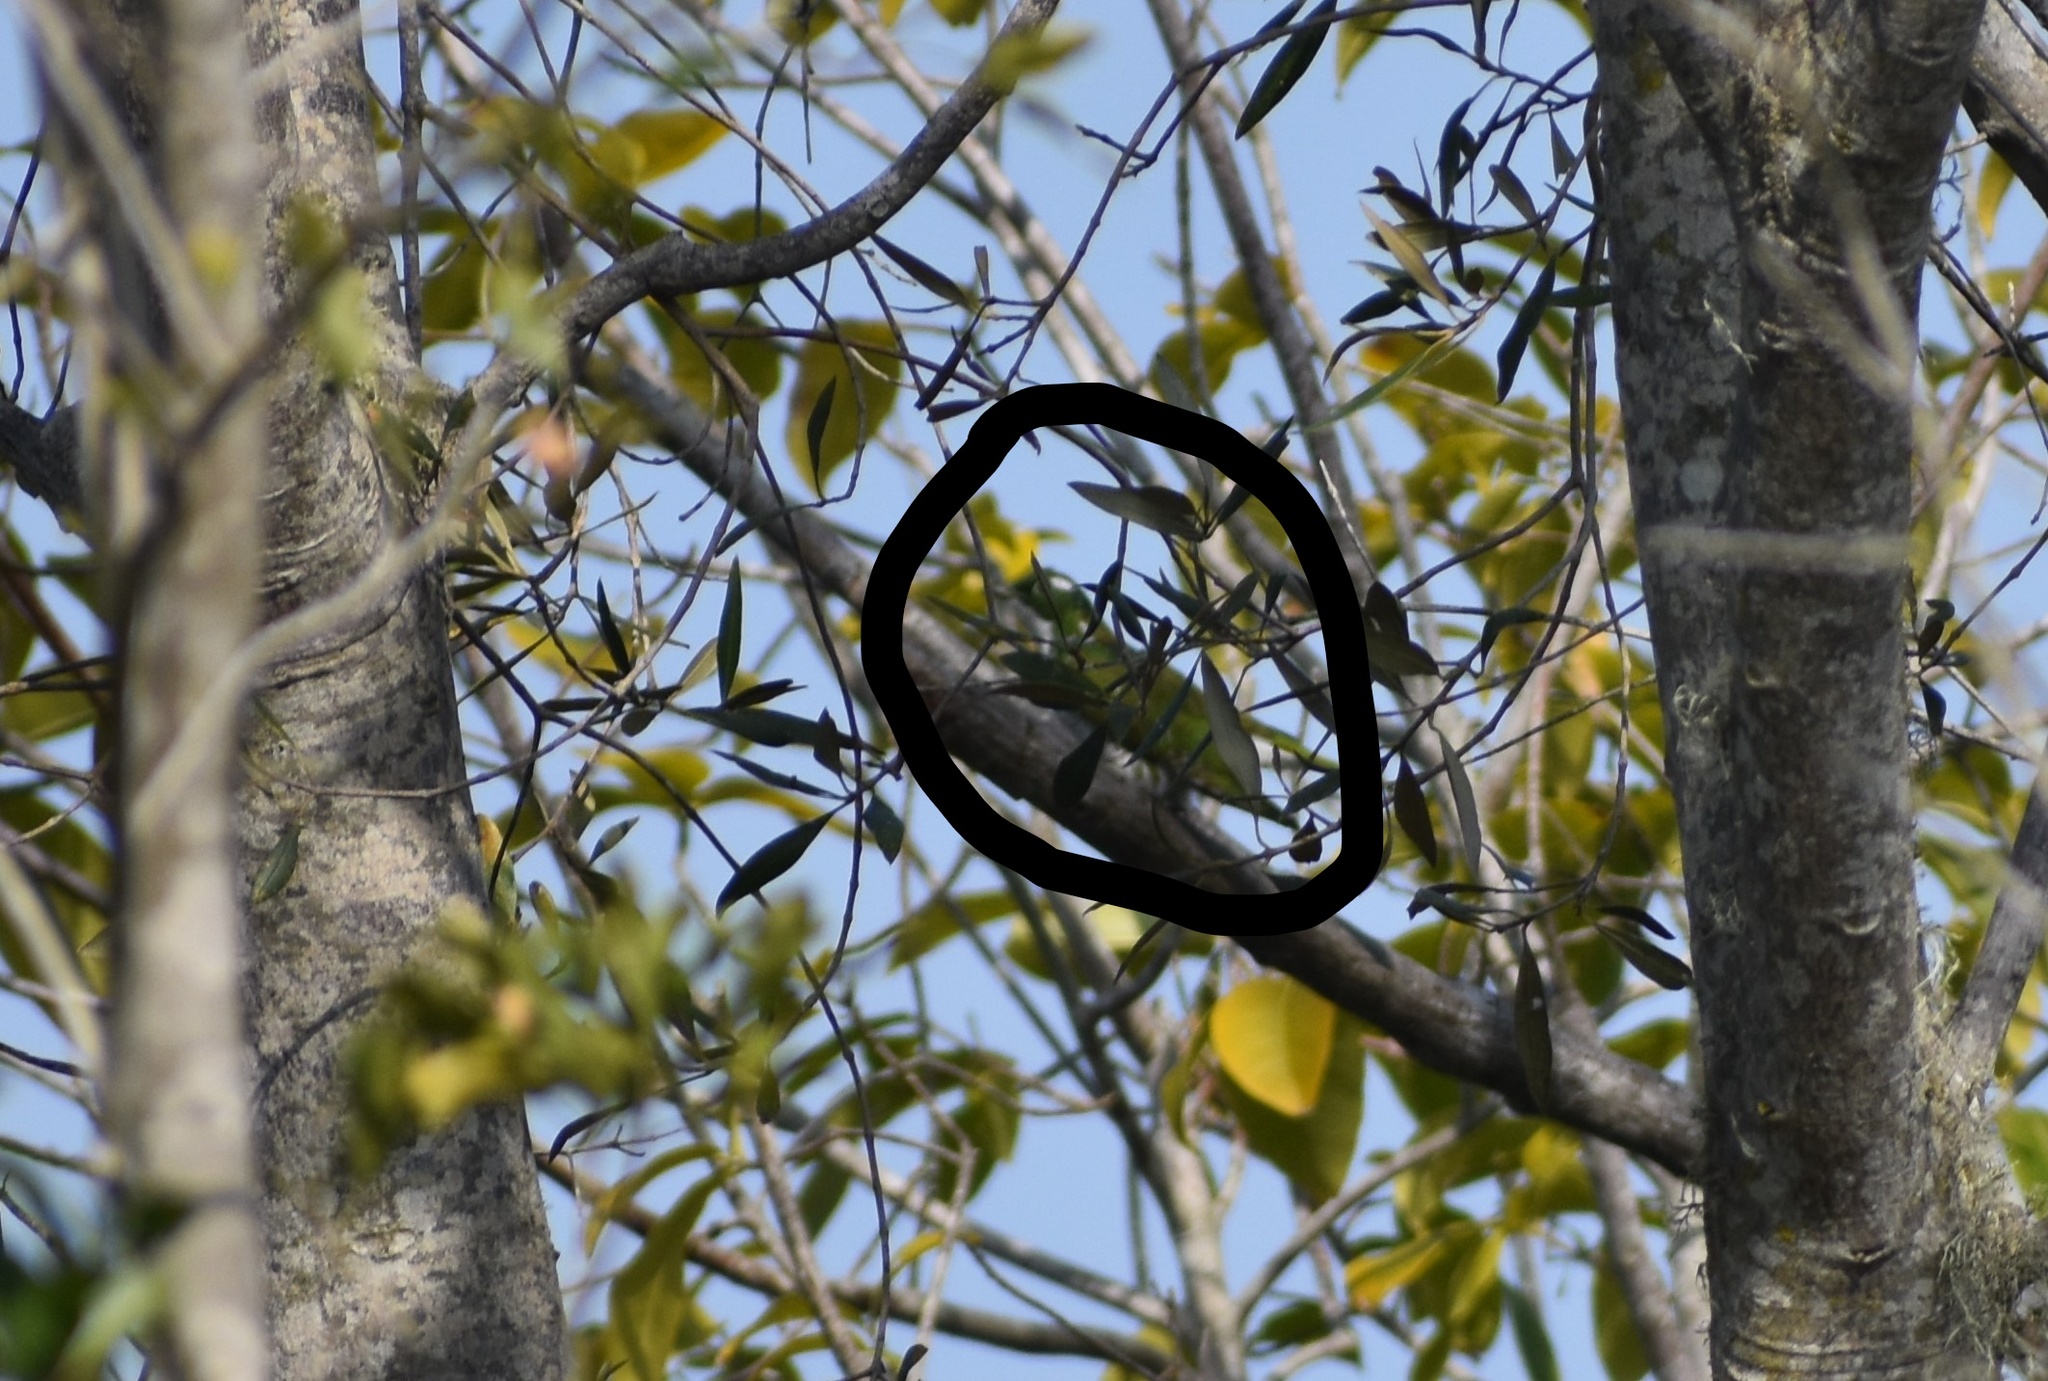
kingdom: Animalia
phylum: Chordata
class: Aves
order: Cuculiformes
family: Cuculidae
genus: Chrysococcyx
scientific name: Chrysococcyx klaas
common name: Klaas's cuckoo
